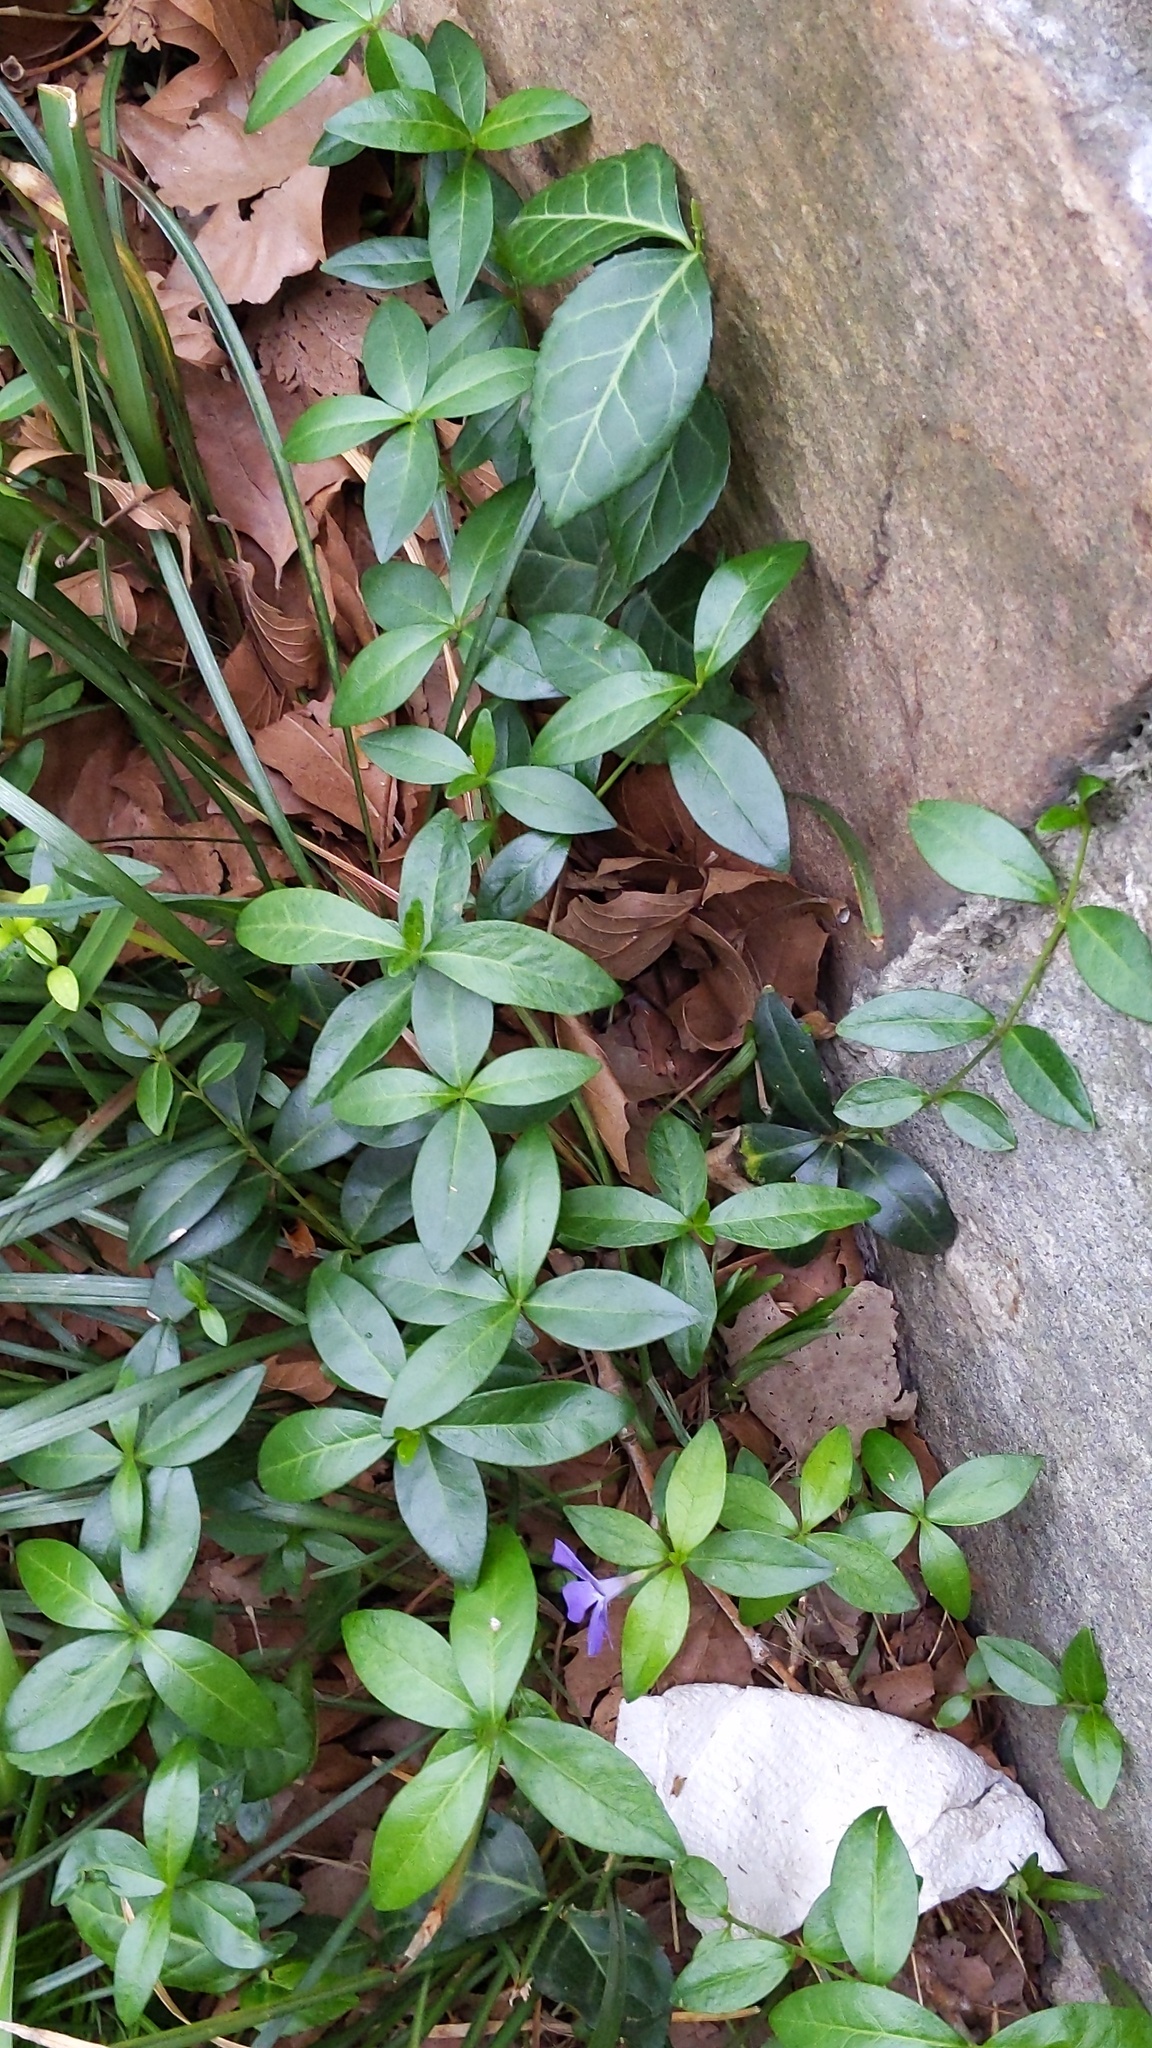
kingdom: Plantae
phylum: Tracheophyta
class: Magnoliopsida
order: Gentianales
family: Apocynaceae
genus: Vinca
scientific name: Vinca minor
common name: Lesser periwinkle
